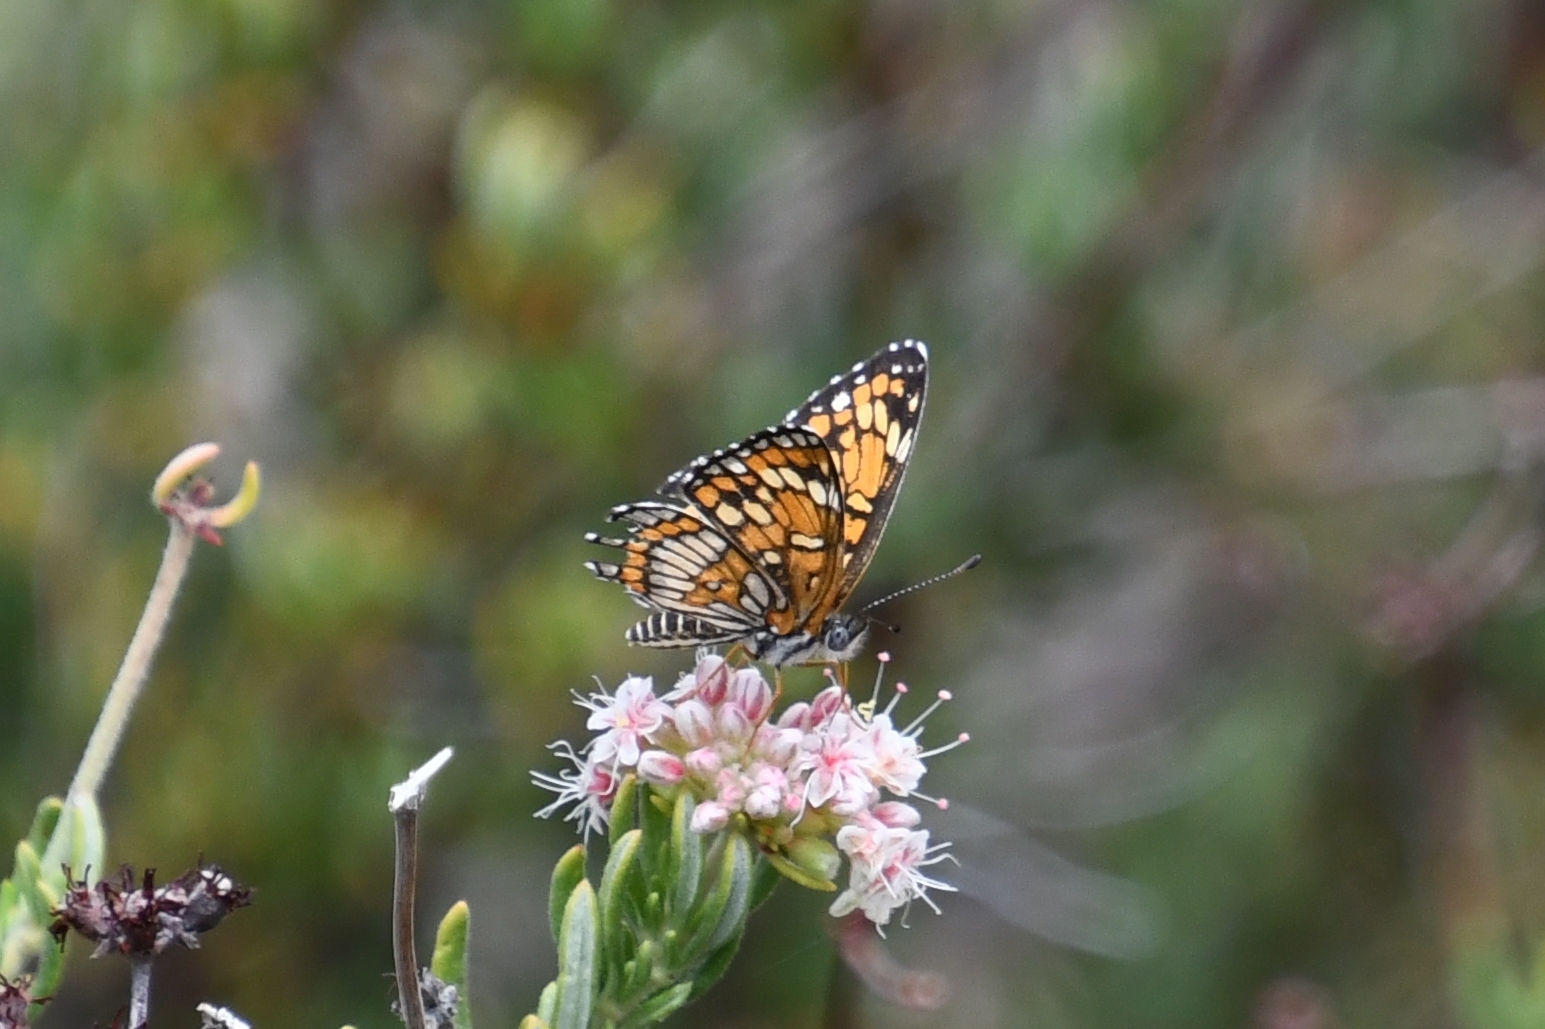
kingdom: Animalia
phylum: Arthropoda
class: Insecta
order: Lepidoptera
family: Nymphalidae
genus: Thessalia
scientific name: Thessalia theona
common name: Nymphalid moth
